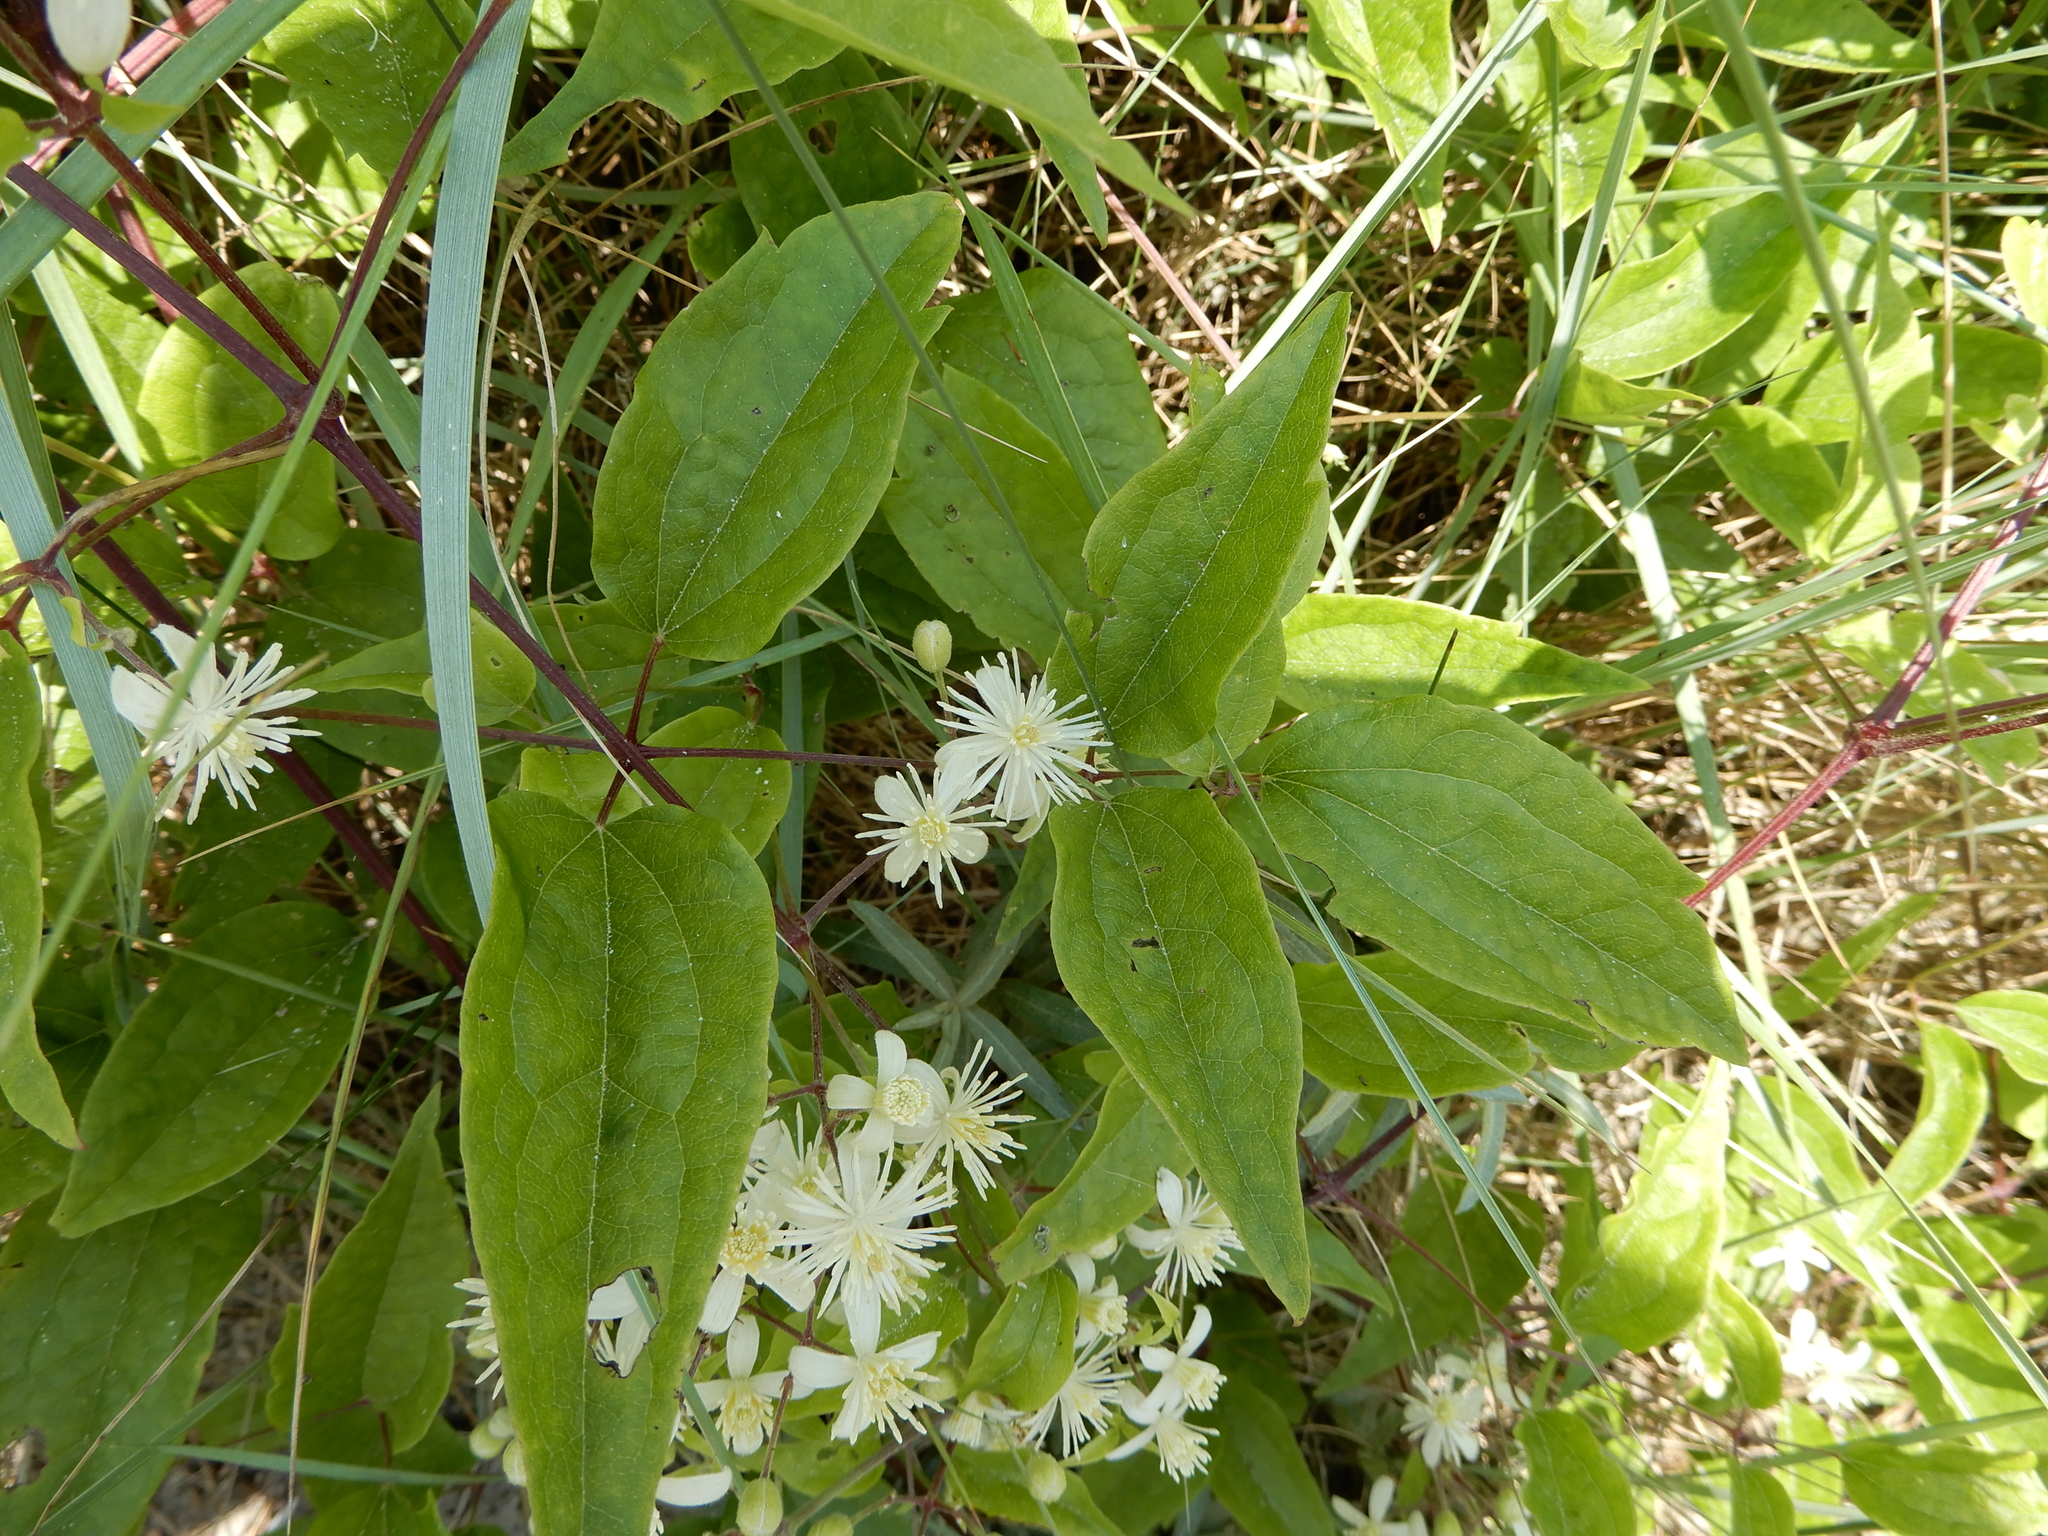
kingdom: Plantae
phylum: Tracheophyta
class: Magnoliopsida
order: Ranunculales
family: Ranunculaceae
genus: Clematis
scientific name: Clematis vitalba
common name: Evergreen clematis
